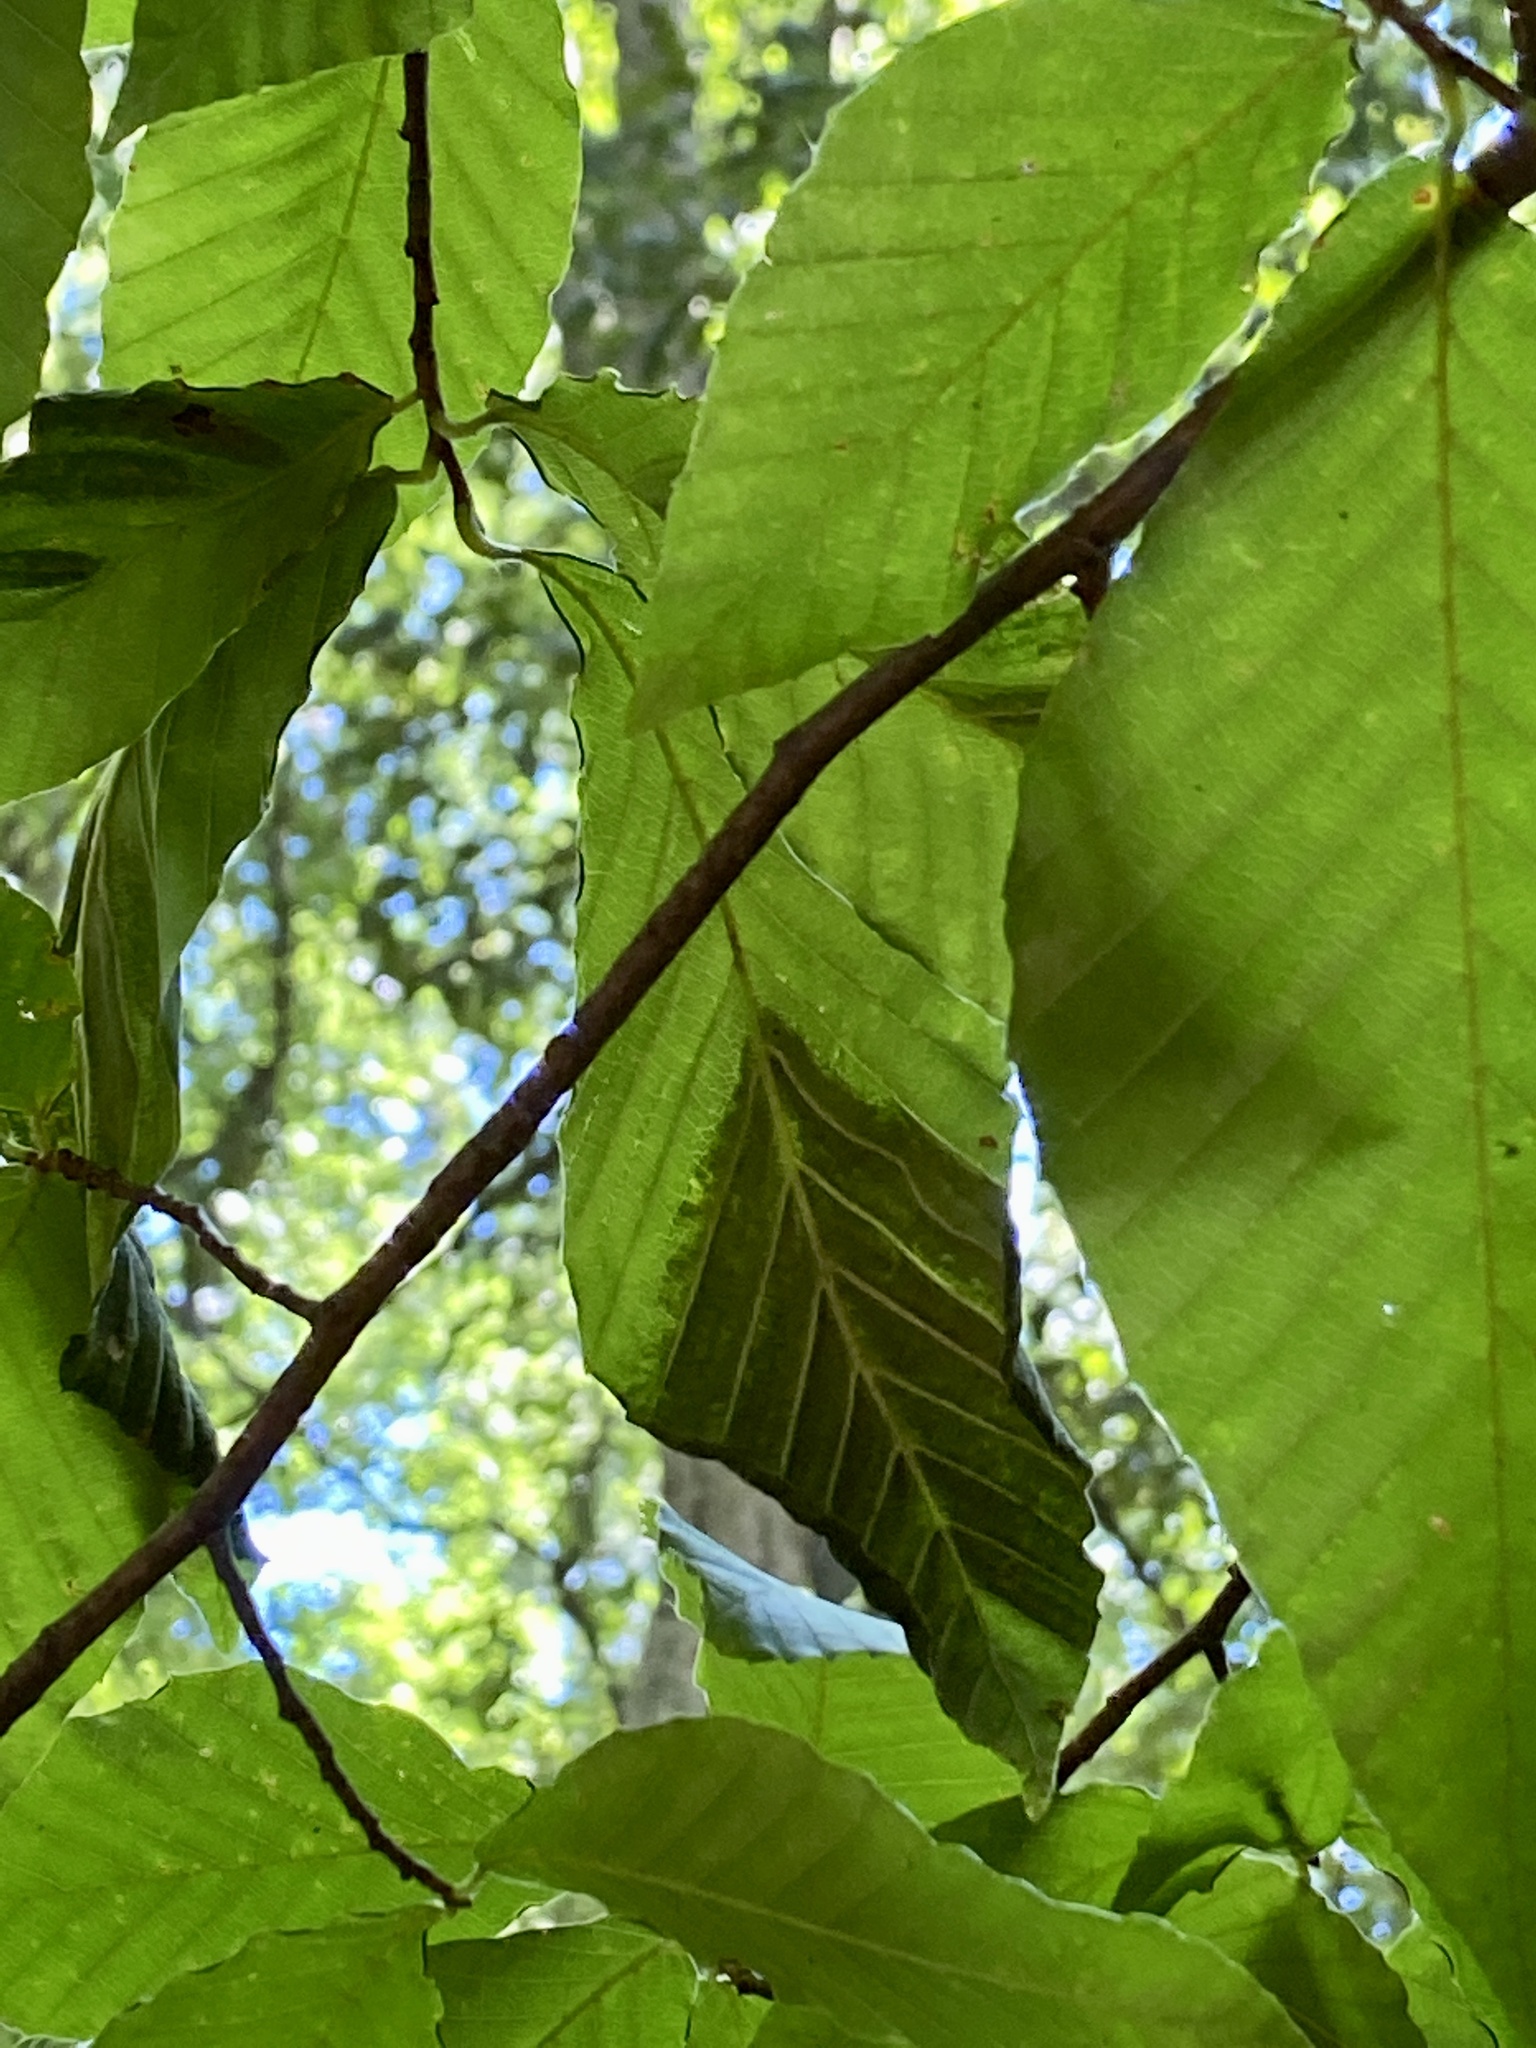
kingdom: Animalia
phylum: Nematoda
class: Chromadorea
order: Rhabditida
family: Anguinidae
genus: Litylenchus
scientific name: Litylenchus crenatae
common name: Beech leaf disease
